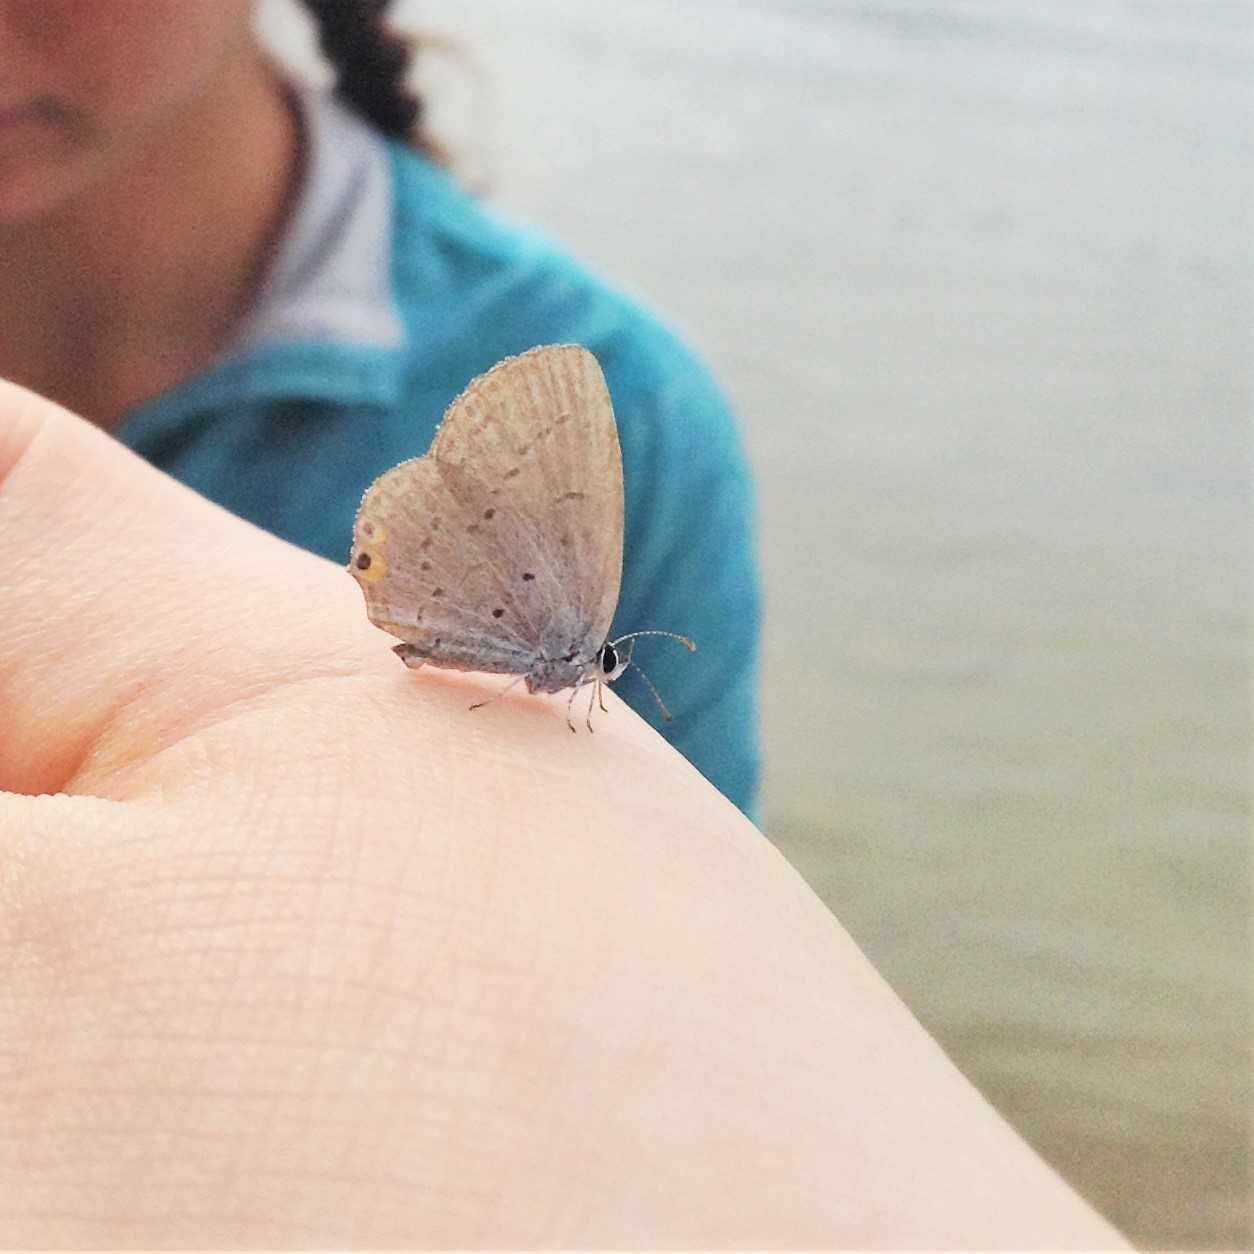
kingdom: Animalia
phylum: Arthropoda
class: Insecta
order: Lepidoptera
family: Lycaenidae
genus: Elkalyce
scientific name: Elkalyce comyntas
